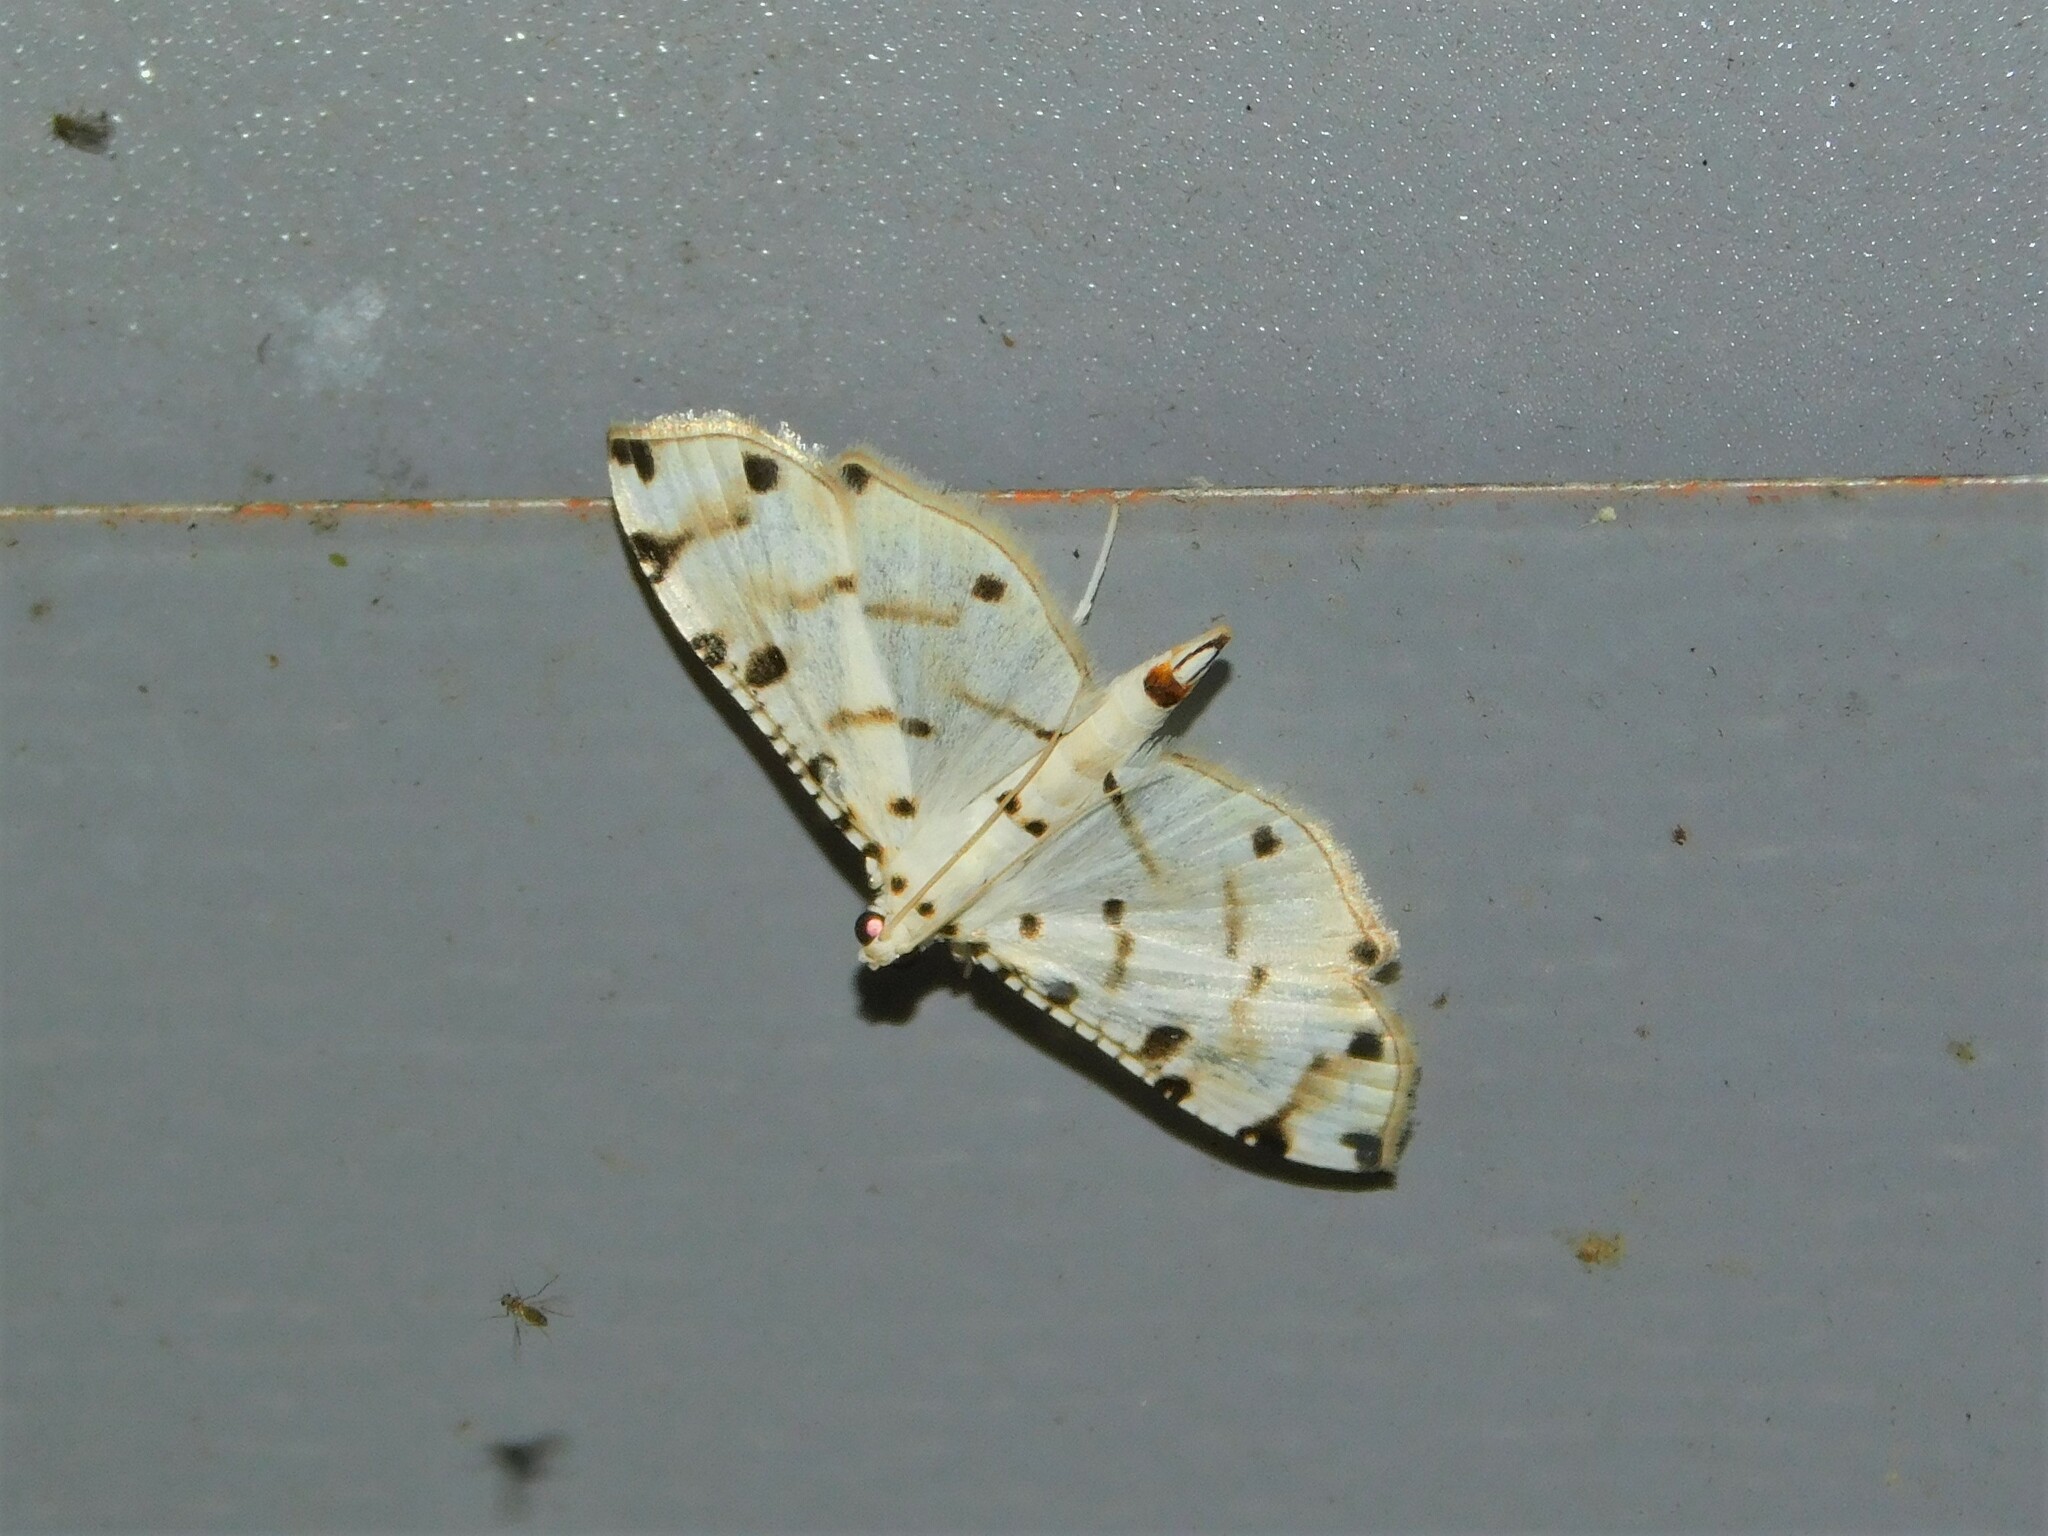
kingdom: Animalia
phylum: Arthropoda
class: Insecta
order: Lepidoptera
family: Crambidae
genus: Pycnarmon
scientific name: Pycnarmon cribrata
